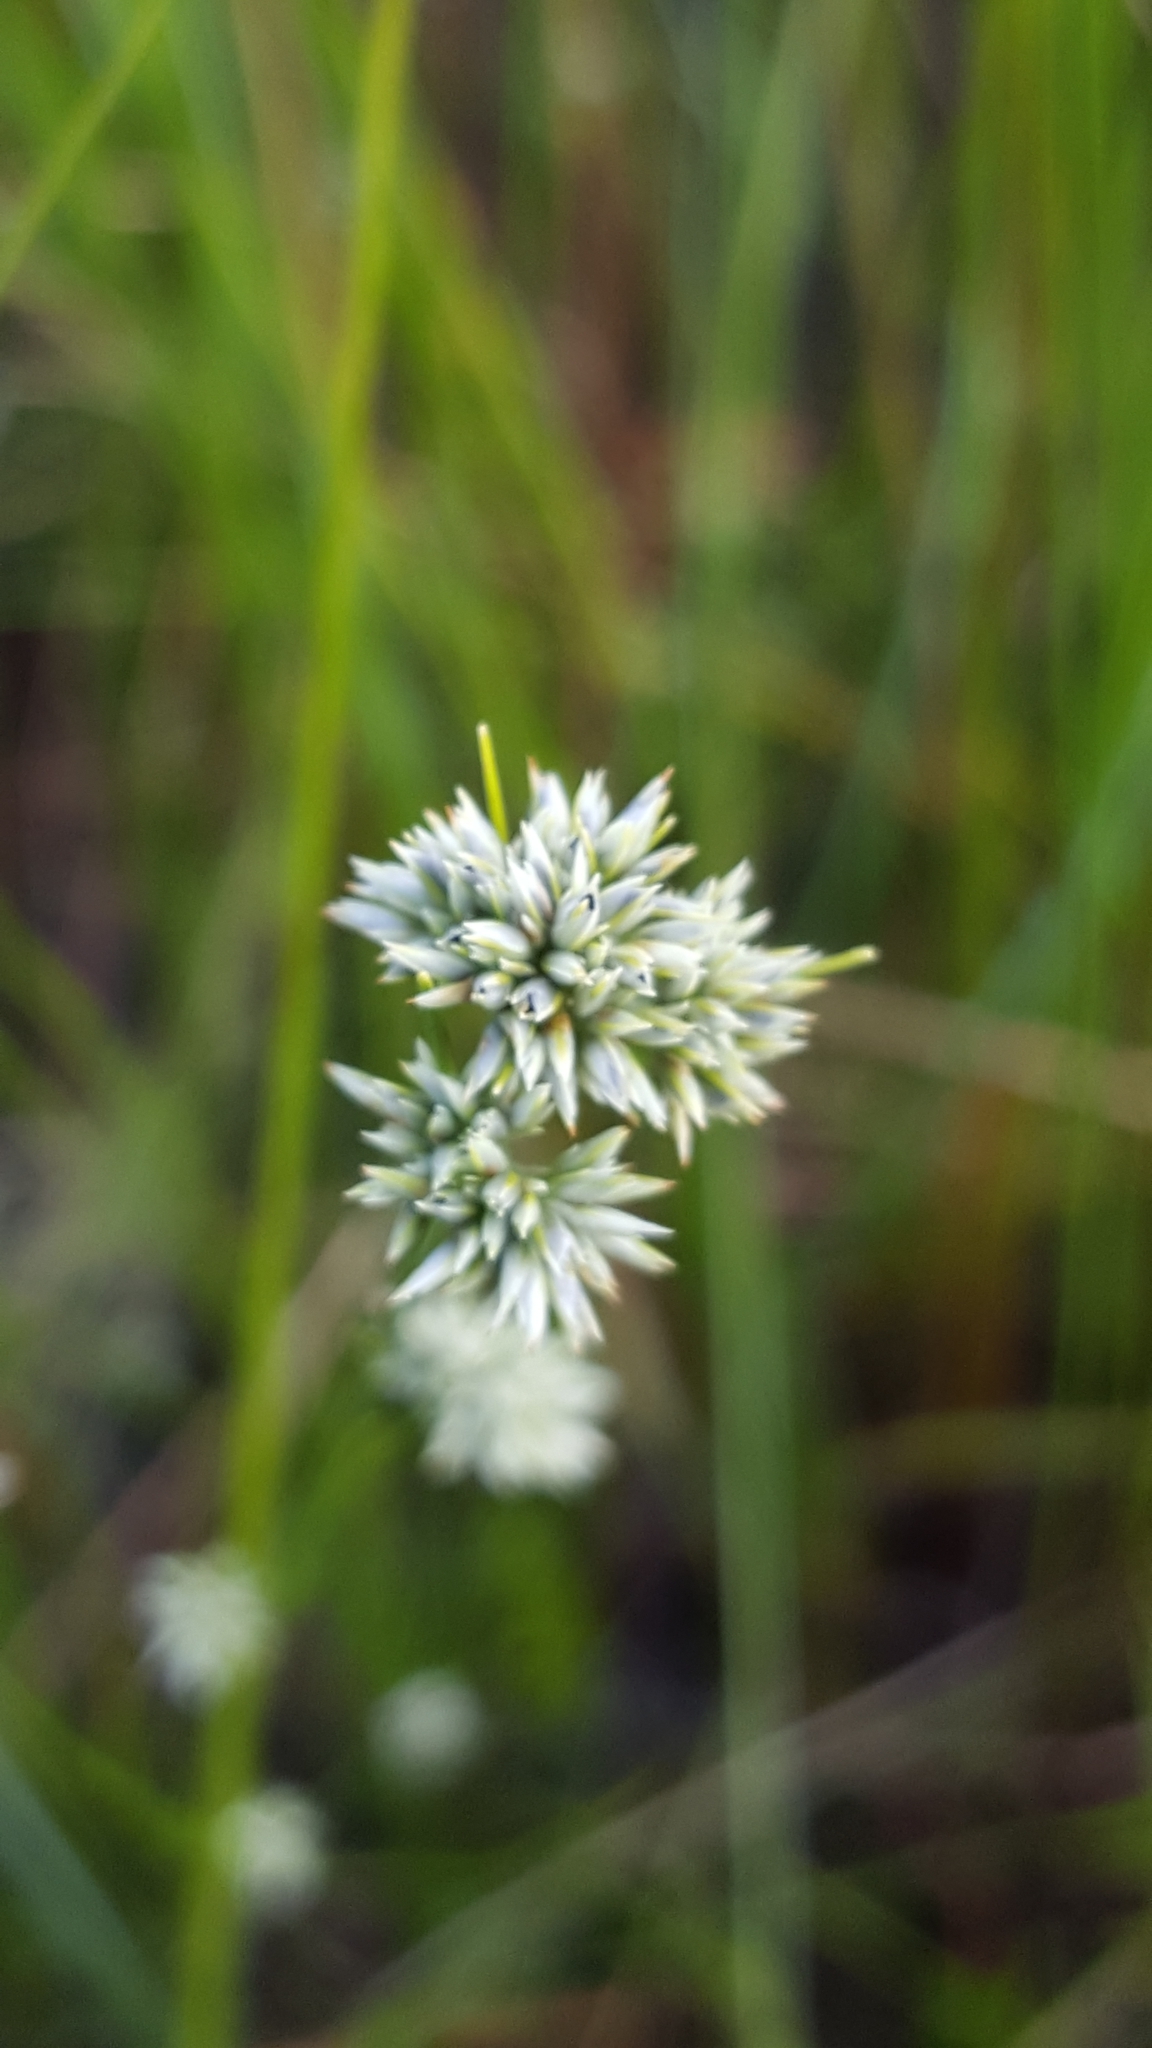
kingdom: Plantae
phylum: Tracheophyta
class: Liliopsida
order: Poales
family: Cyperaceae
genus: Rhynchospora
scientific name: Rhynchospora alba
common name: White beak-sedge
